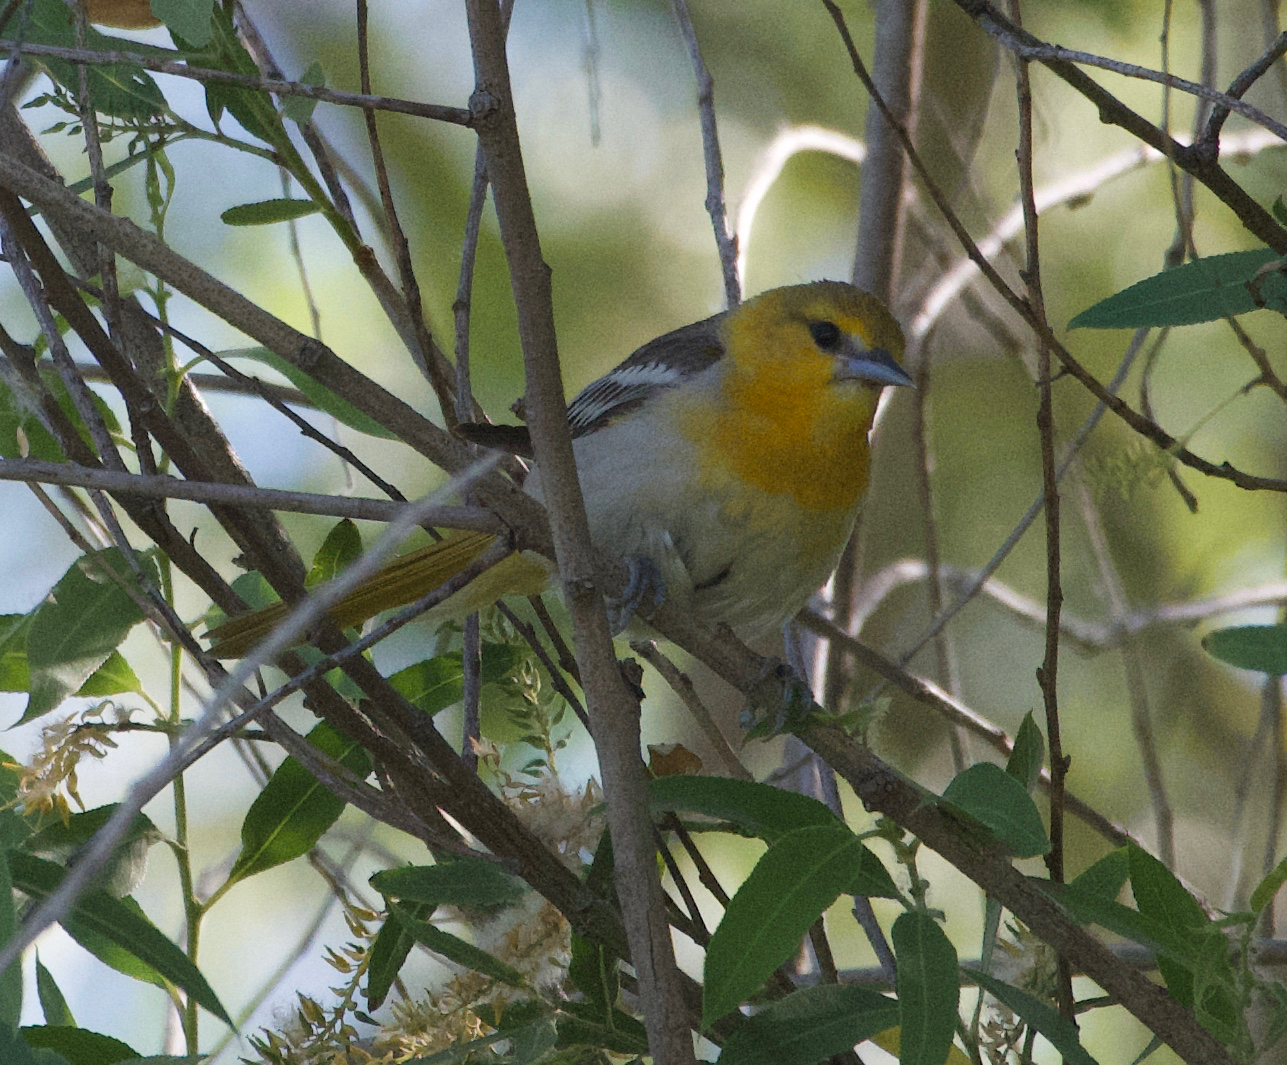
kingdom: Animalia
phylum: Chordata
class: Aves
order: Passeriformes
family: Icteridae
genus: Icterus
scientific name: Icterus bullockii
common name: Bullock's oriole
